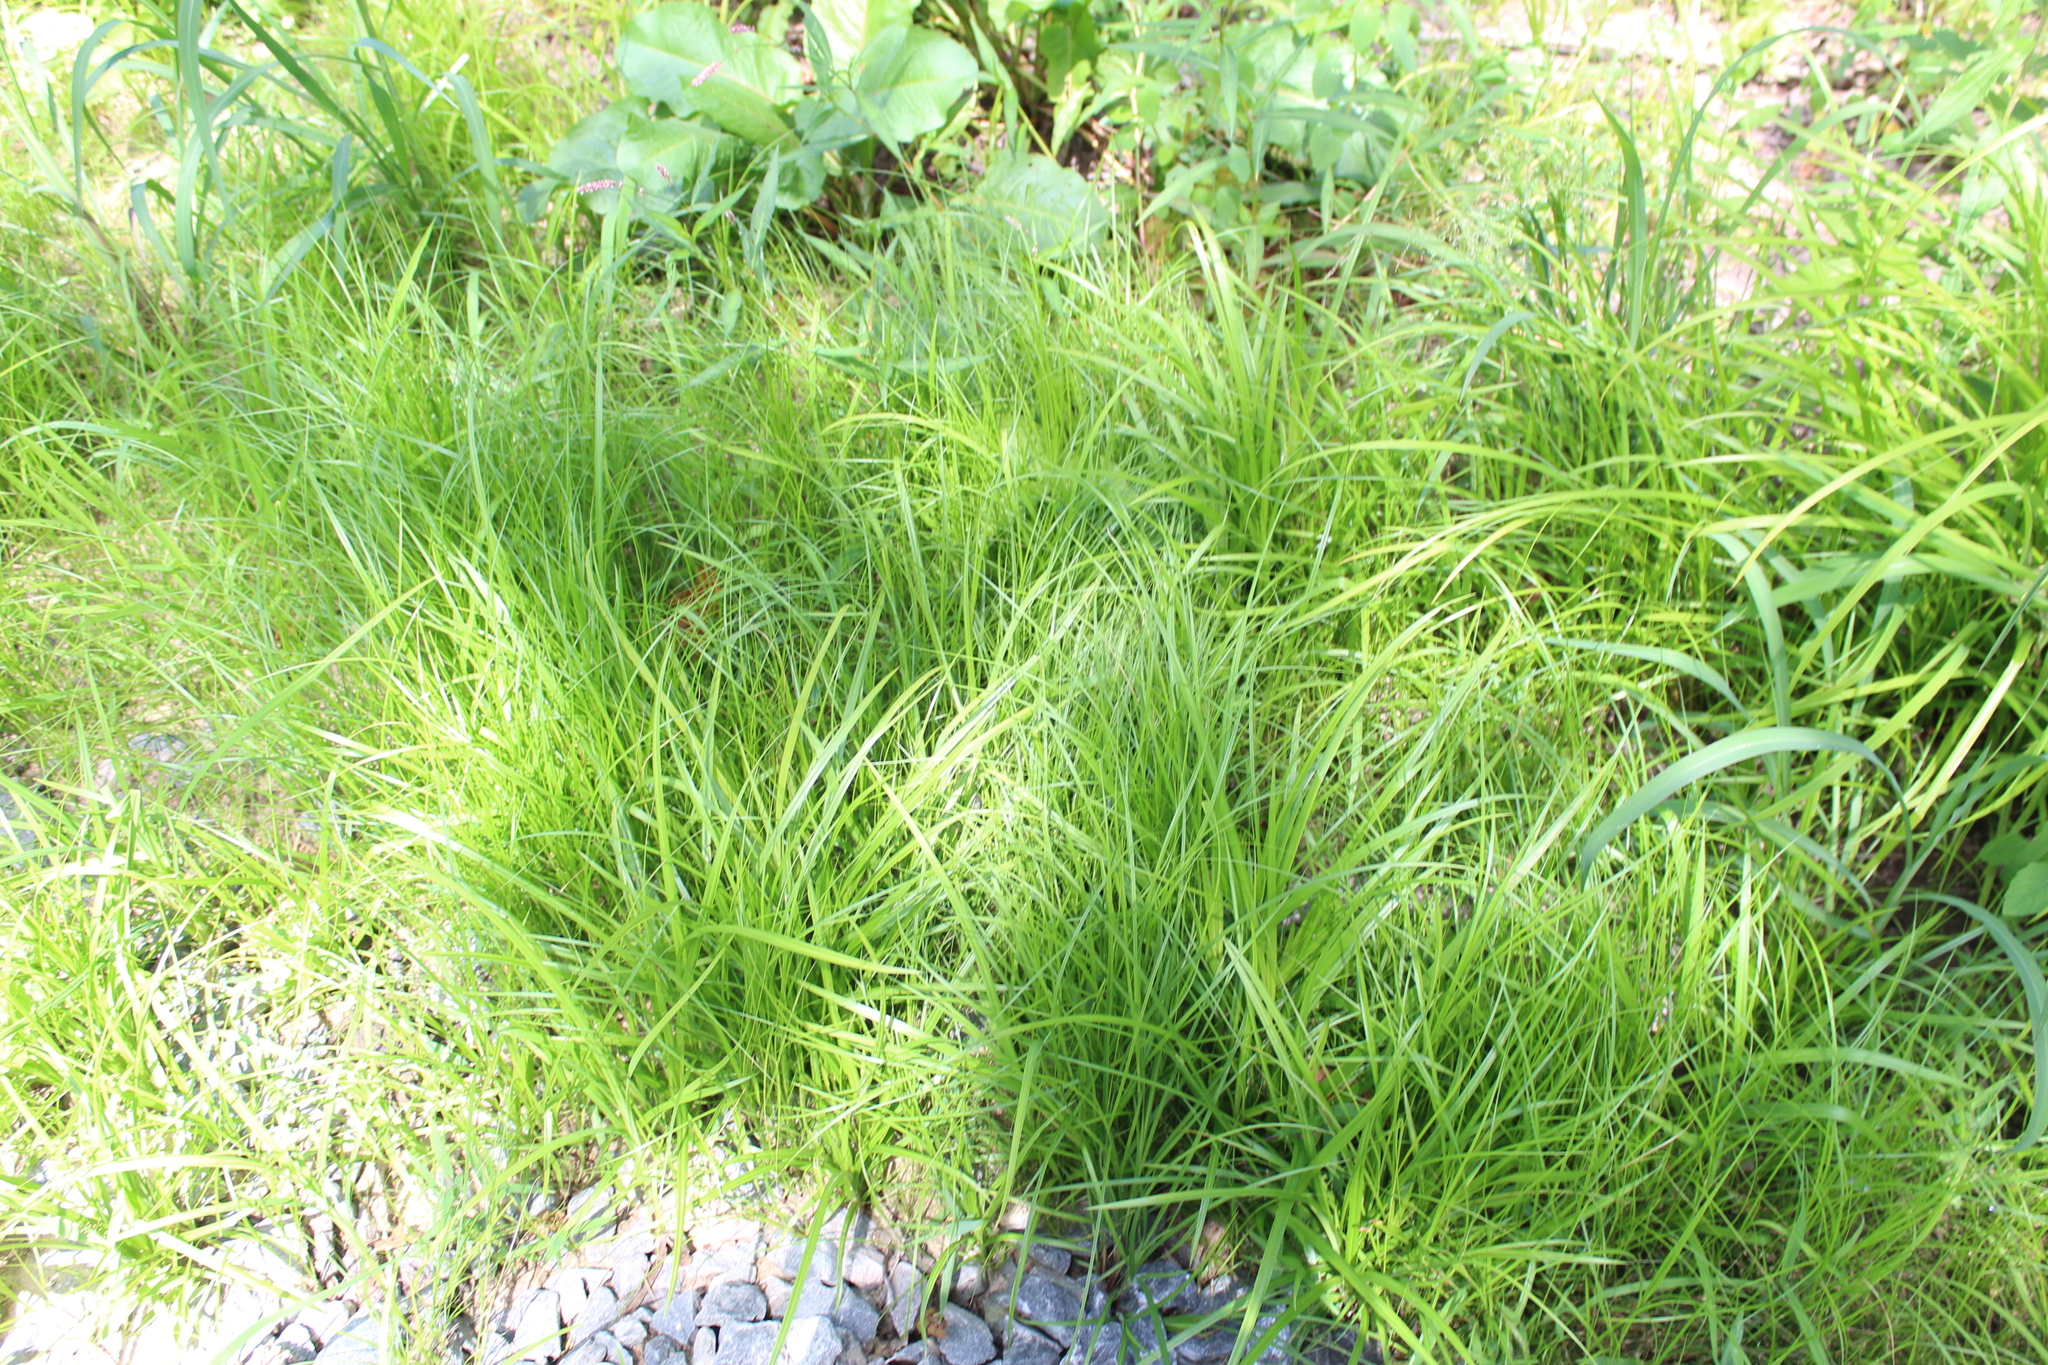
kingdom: Plantae
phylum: Tracheophyta
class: Liliopsida
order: Poales
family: Cyperaceae
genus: Carex
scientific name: Carex
